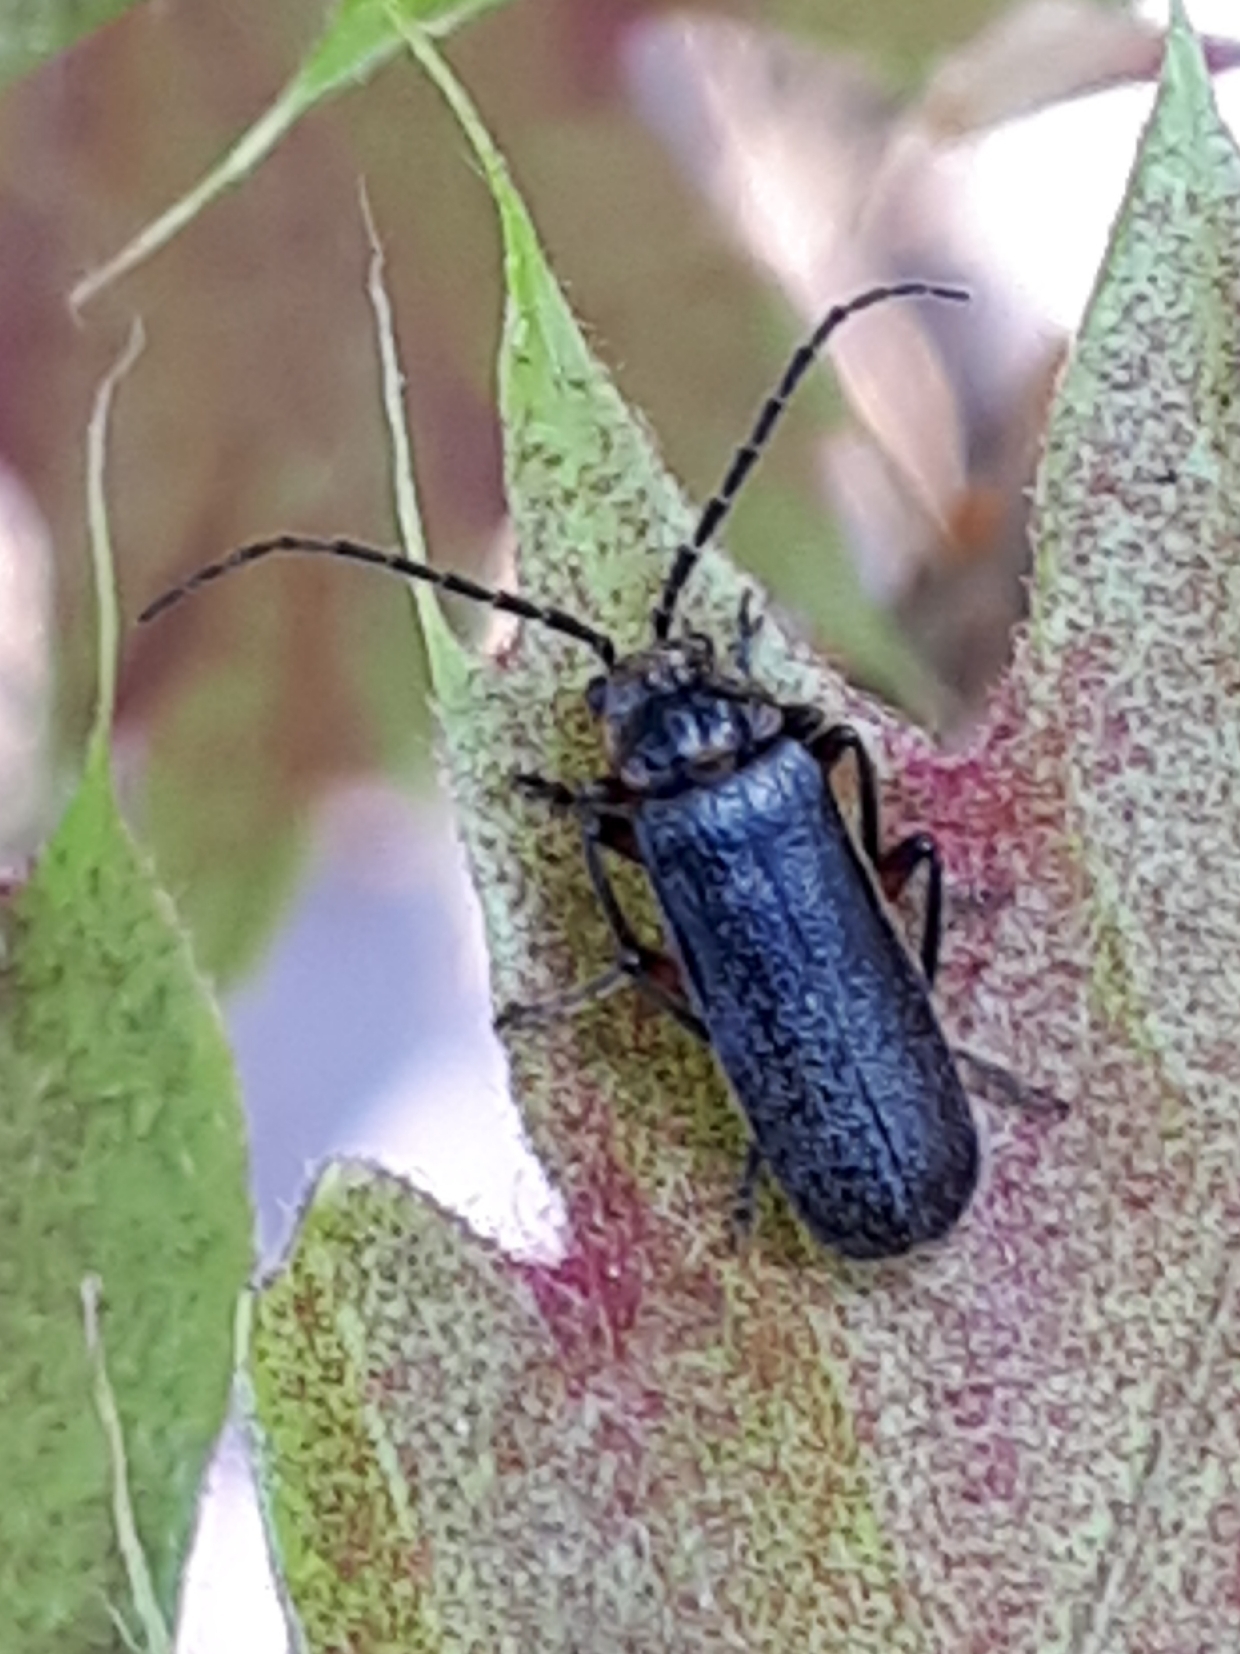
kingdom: Animalia
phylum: Arthropoda
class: Insecta
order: Coleoptera
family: Cantharidae
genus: Atalantycha
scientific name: Atalantycha bilineata
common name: Two-lined leatherwing
